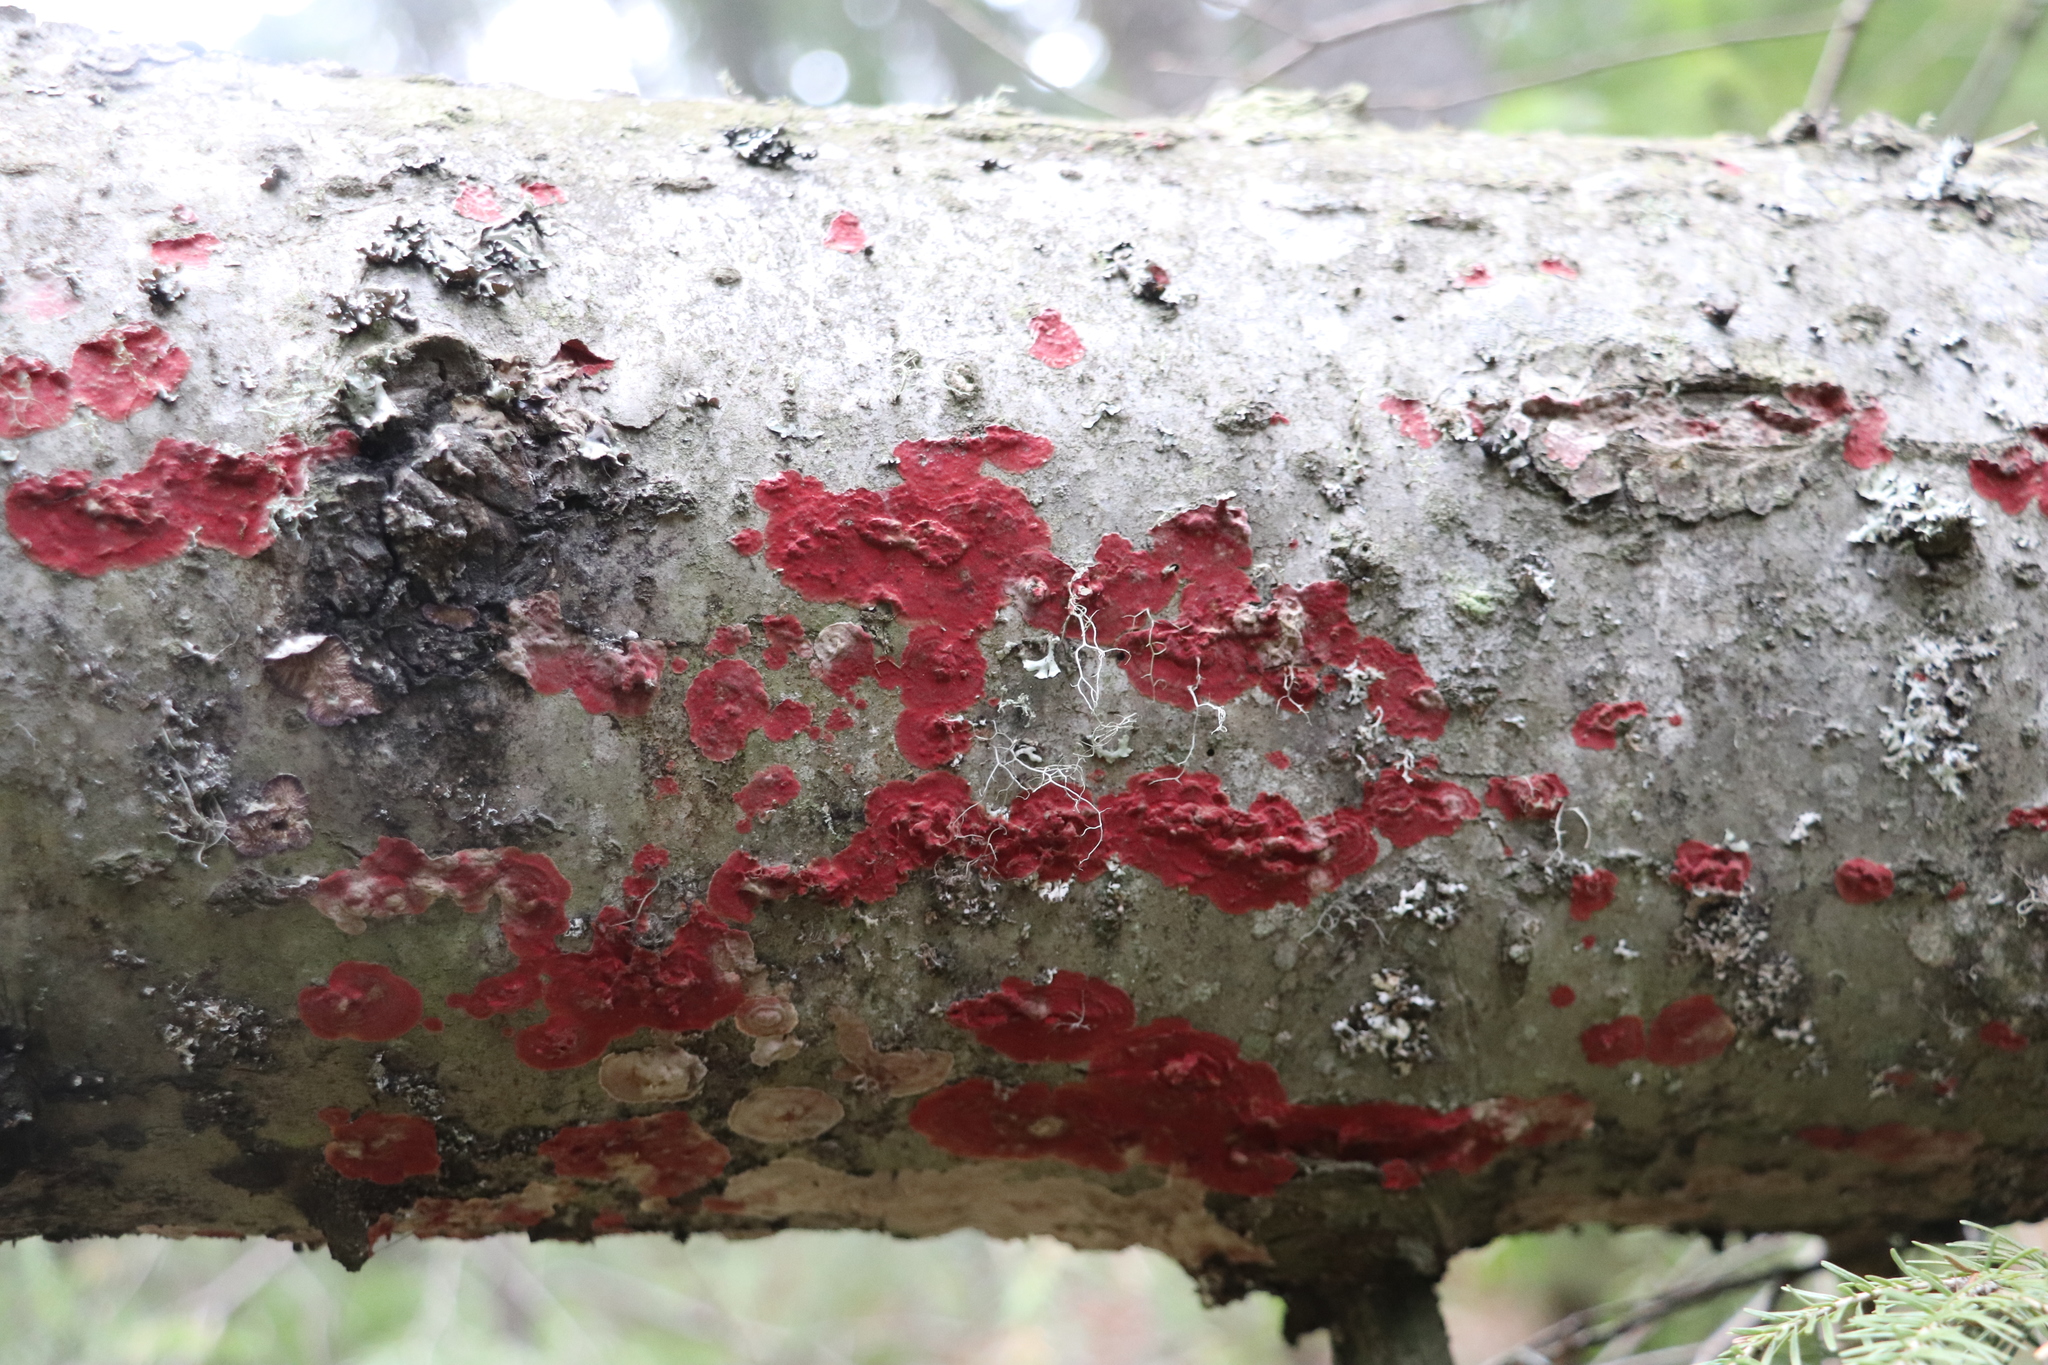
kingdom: Fungi
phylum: Basidiomycota
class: Agaricomycetes
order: Hymenochaetales
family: Hymenochaetaceae
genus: Hymenochaete
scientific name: Hymenochaete cruenta
